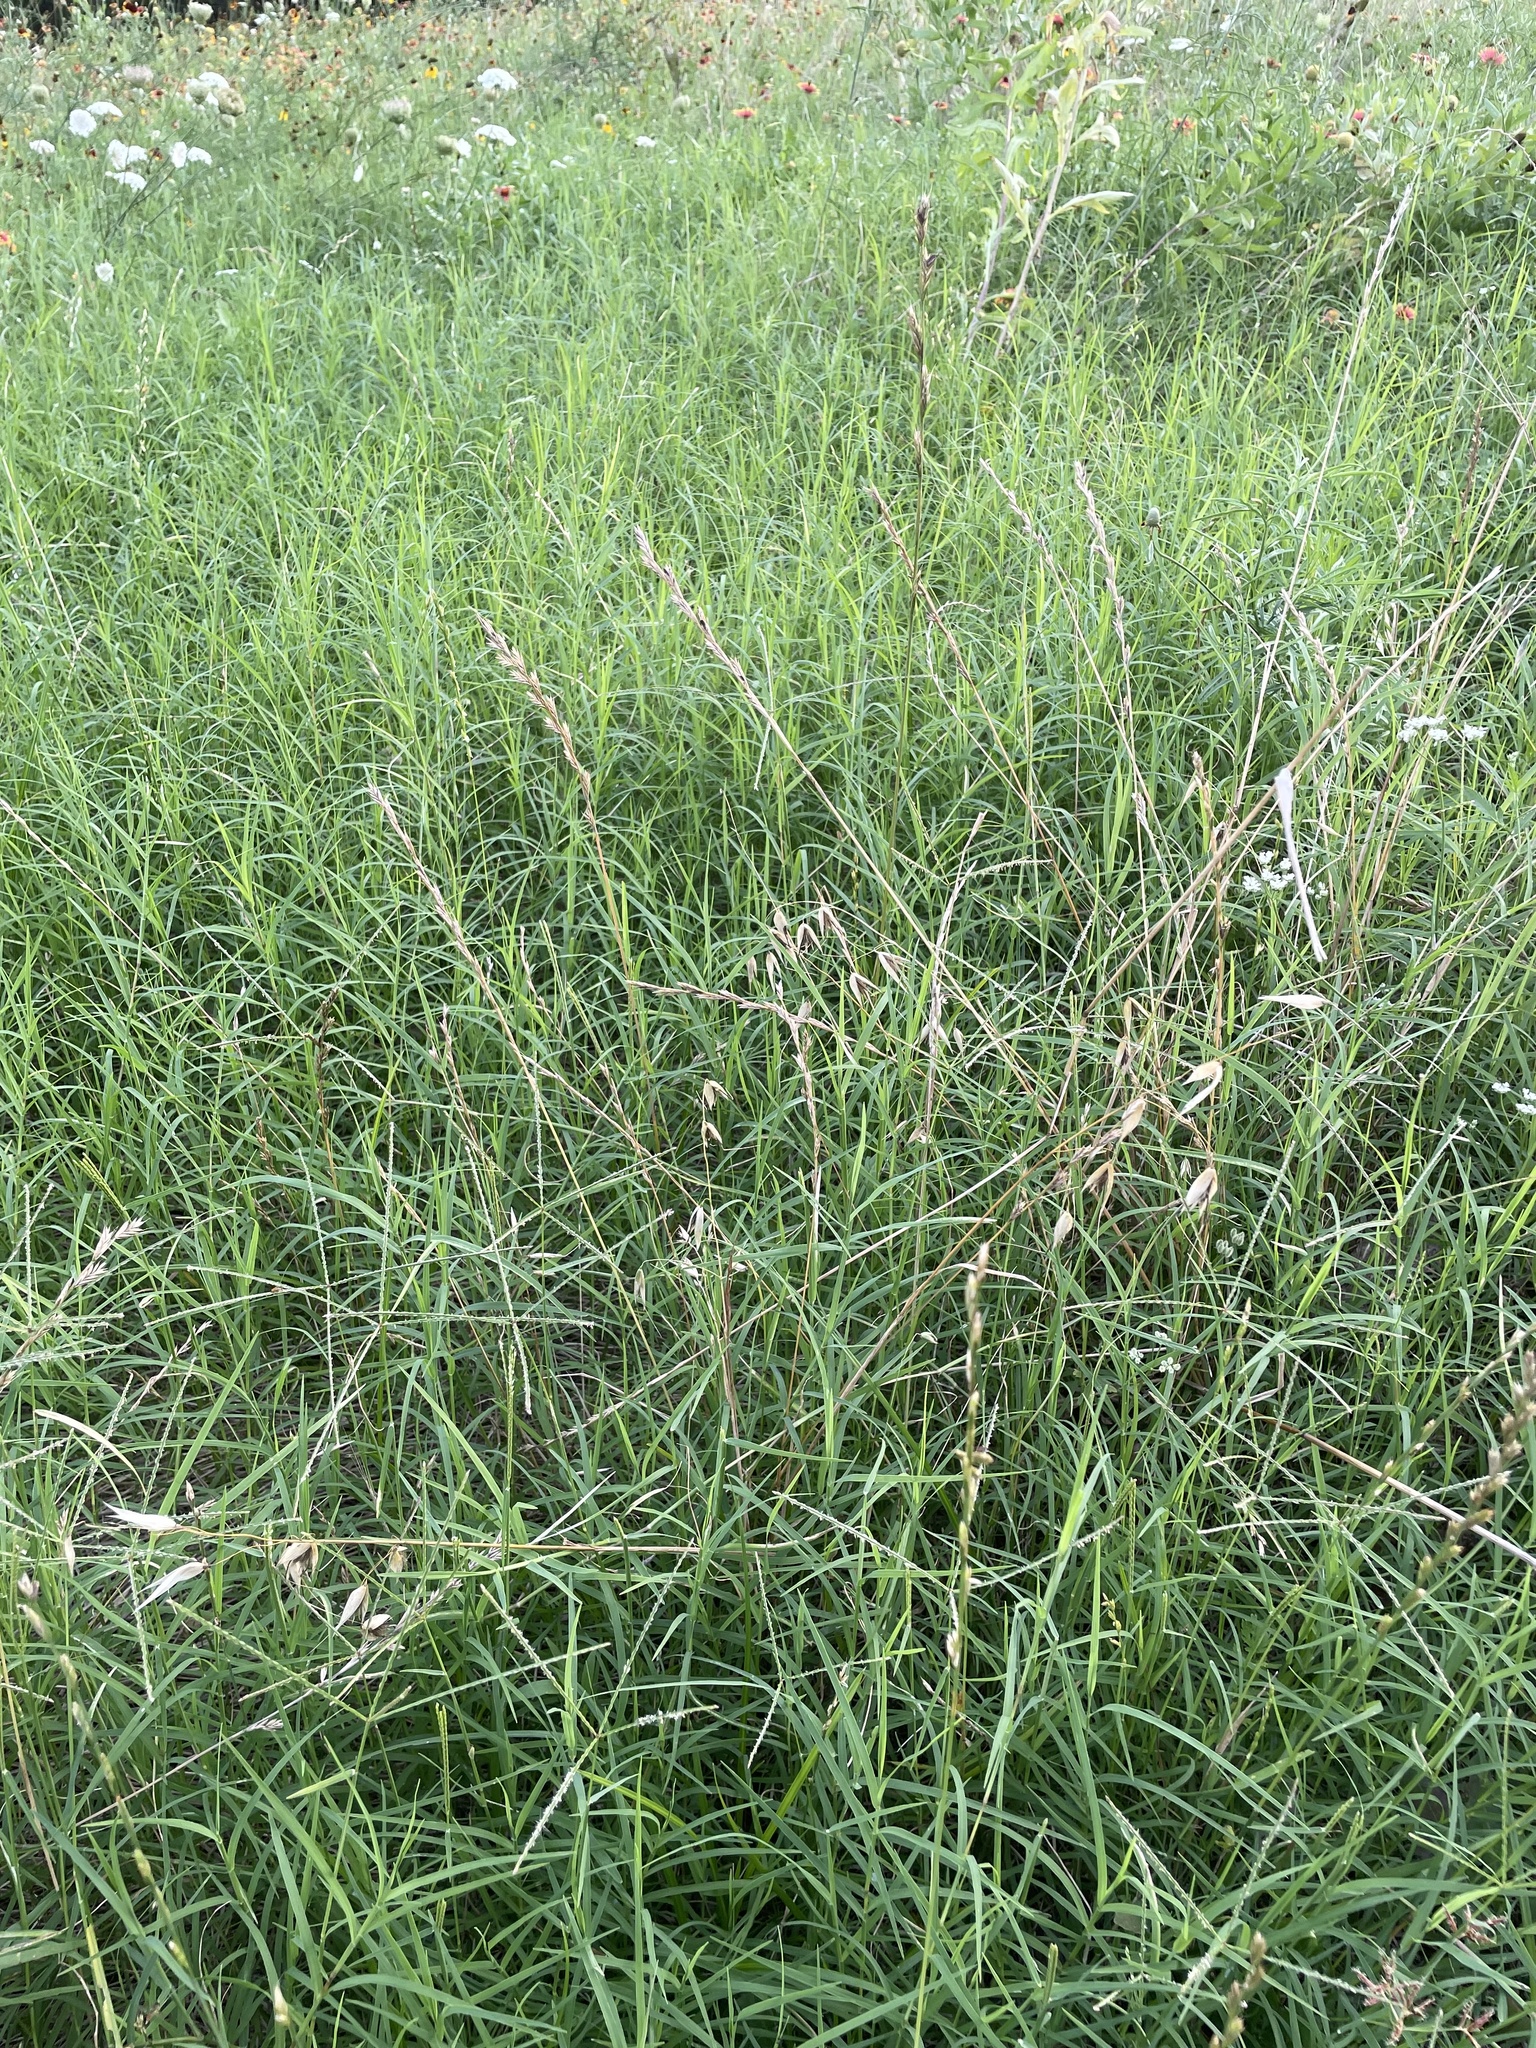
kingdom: Plantae
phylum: Tracheophyta
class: Liliopsida
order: Poales
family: Poaceae
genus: Avena
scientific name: Avena fatua
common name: Wild oat
